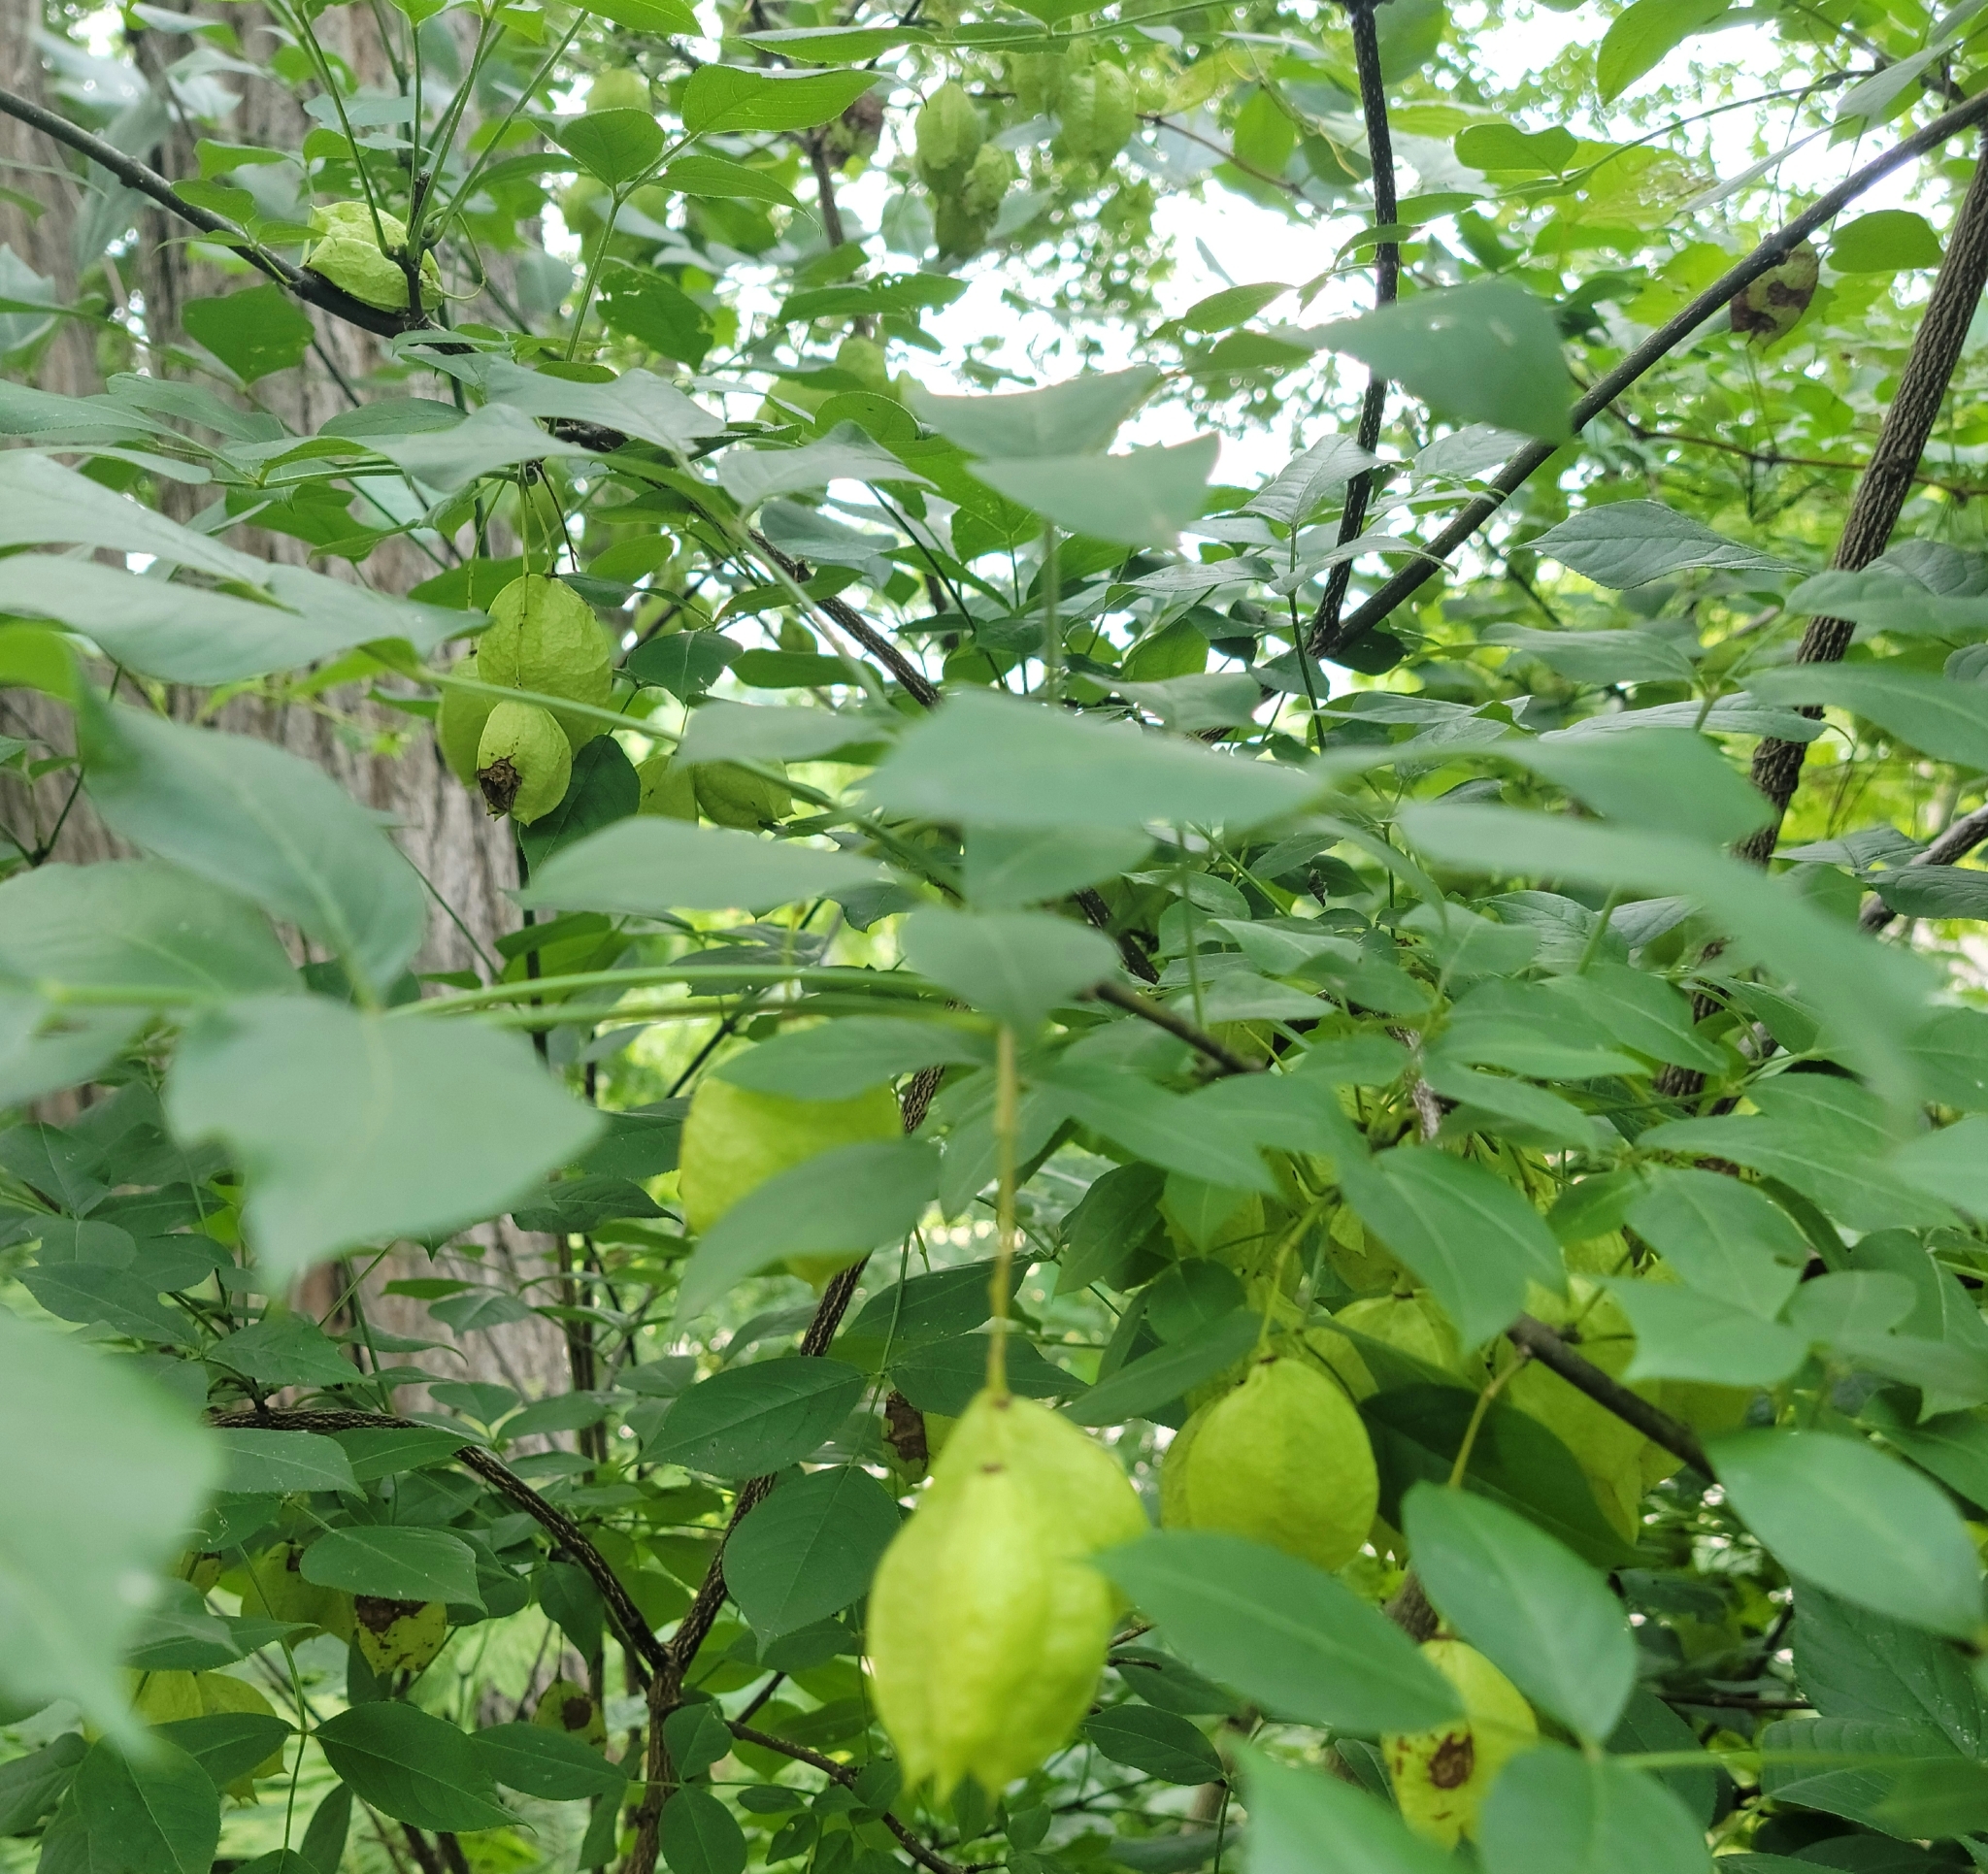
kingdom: Plantae
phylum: Tracheophyta
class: Magnoliopsida
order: Crossosomatales
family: Staphyleaceae
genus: Staphylea
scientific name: Staphylea trifolia
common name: American bladdernut
